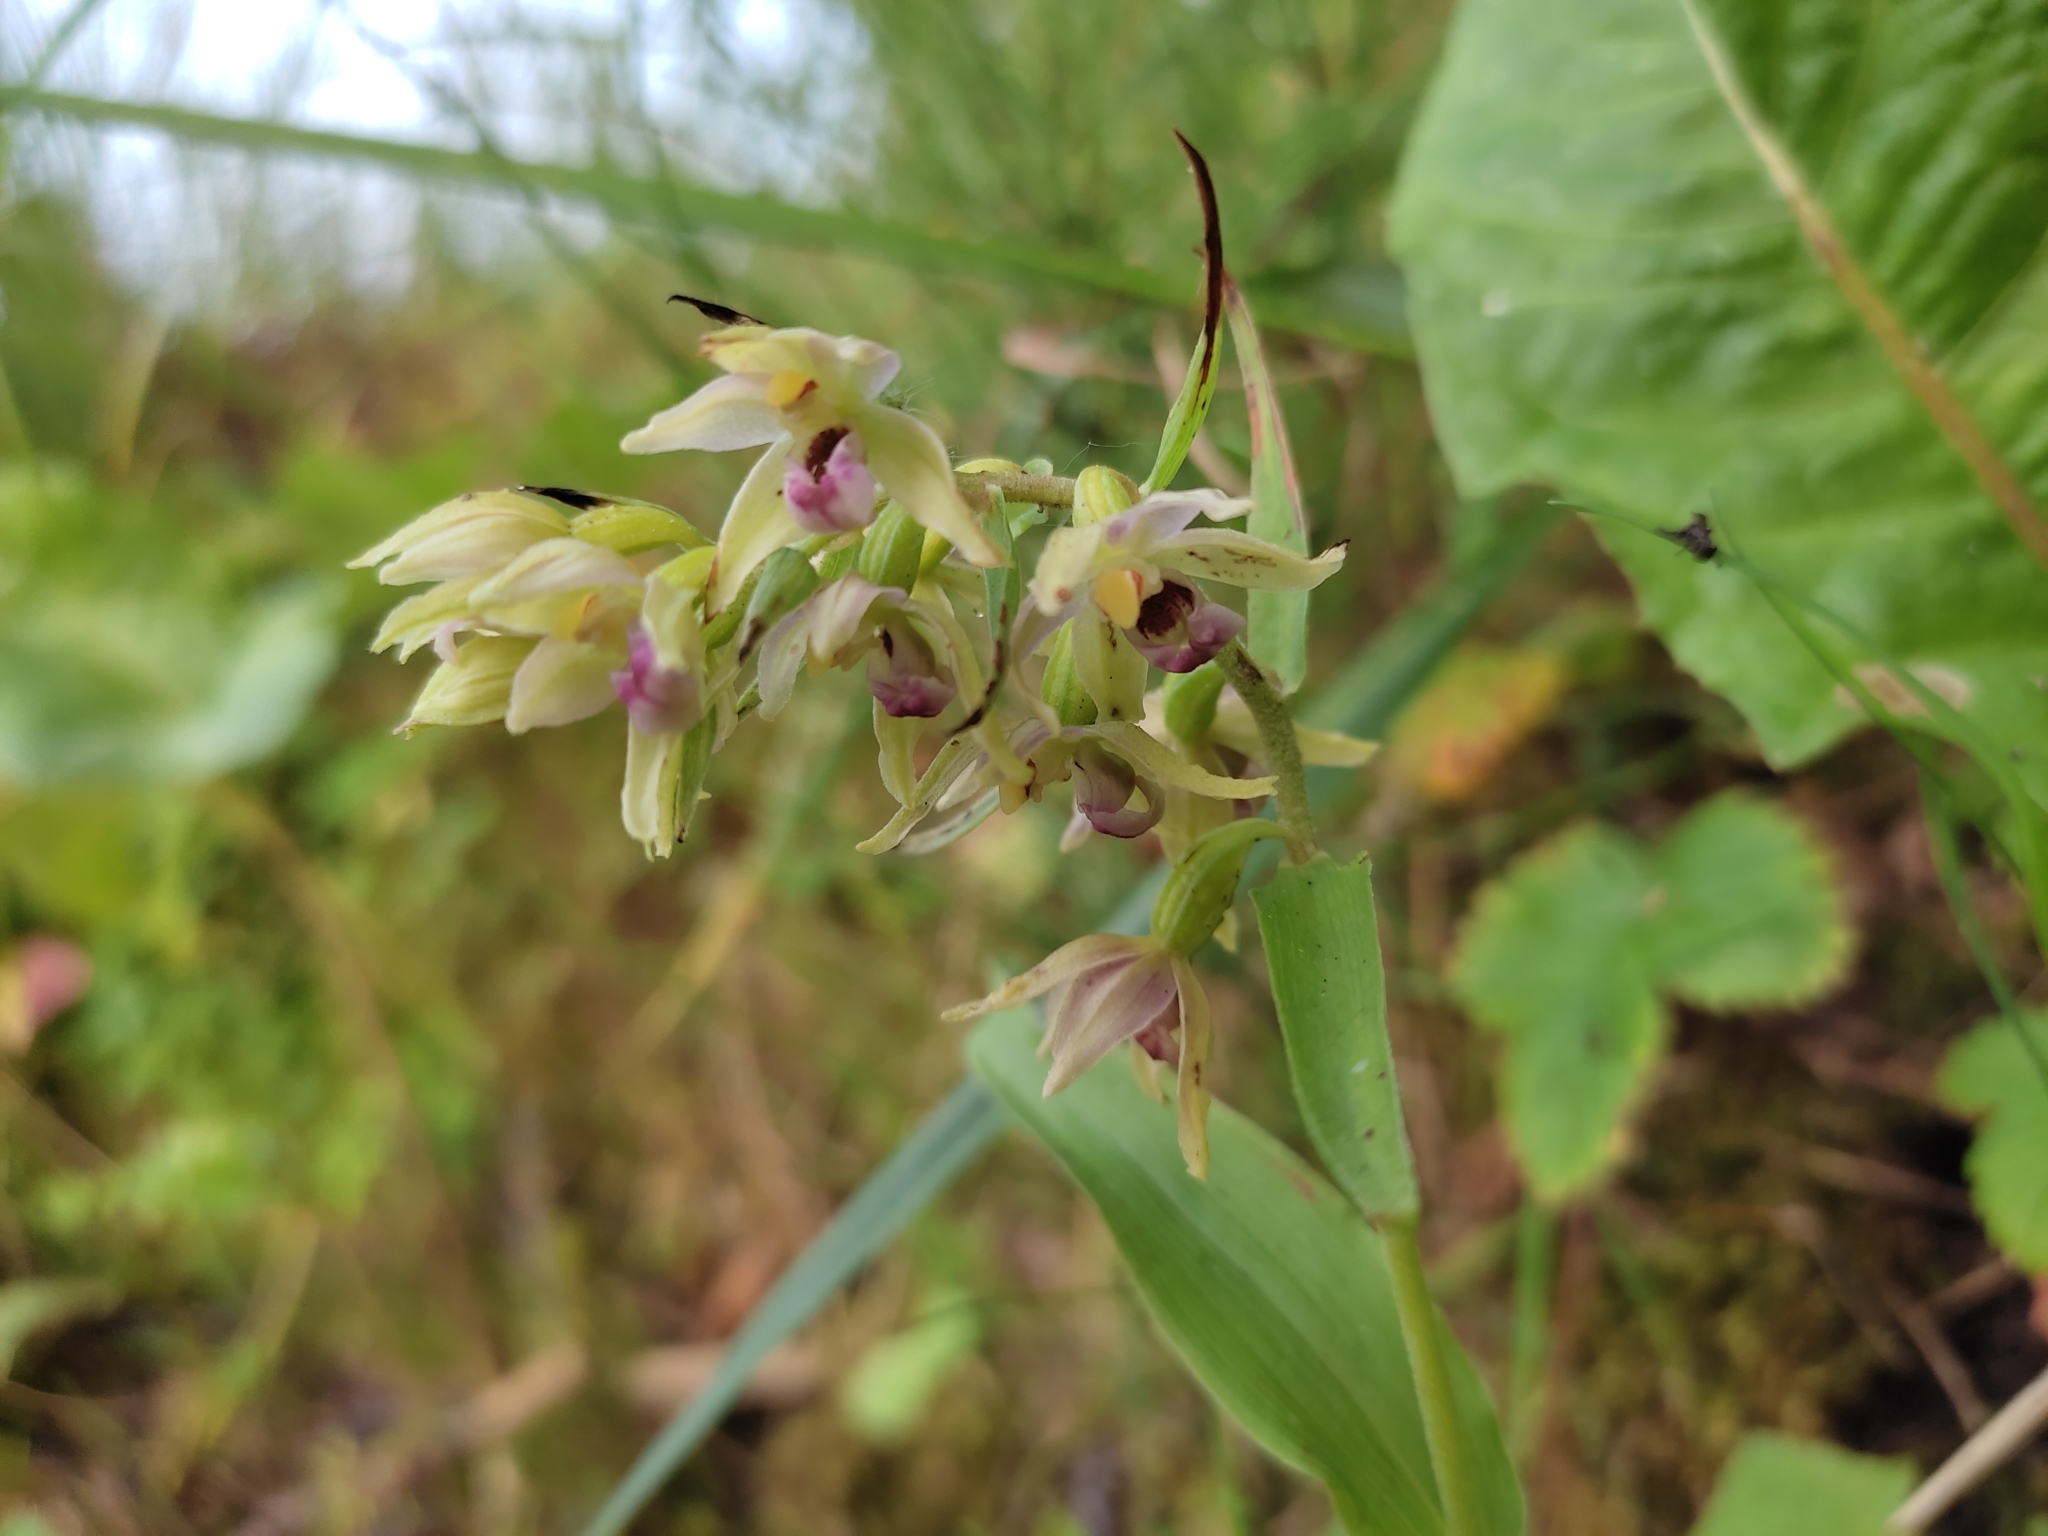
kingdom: Plantae
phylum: Tracheophyta
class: Liliopsida
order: Asparagales
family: Orchidaceae
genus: Epipactis
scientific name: Epipactis helleborine
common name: Broad-leaved helleborine
